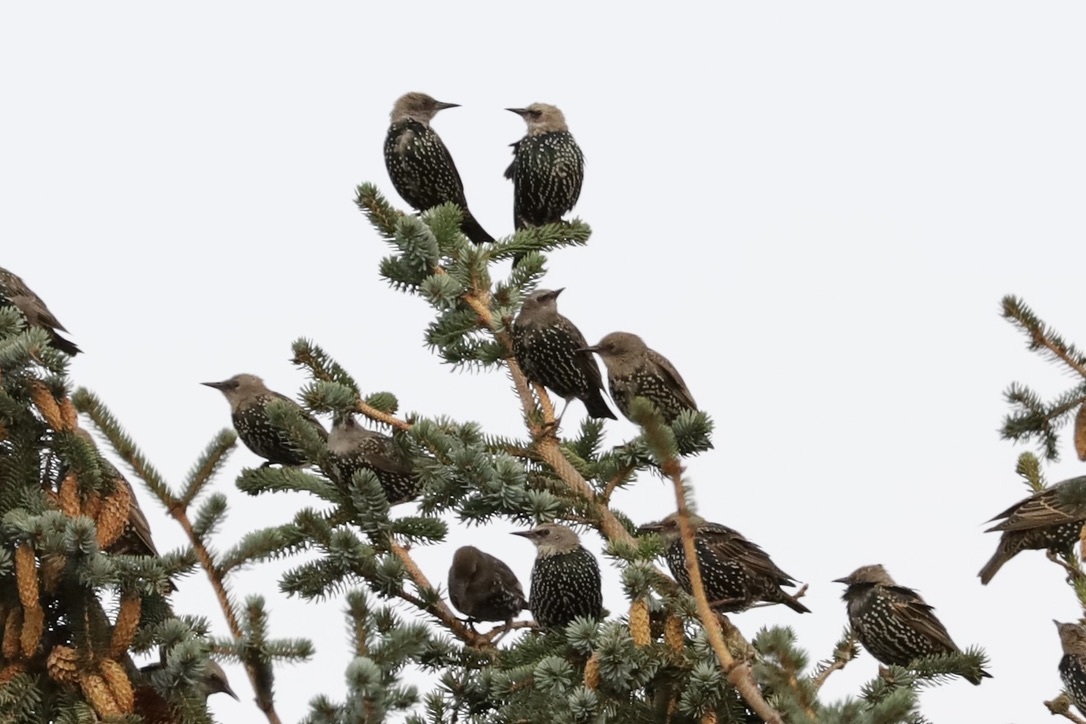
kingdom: Animalia
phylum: Chordata
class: Aves
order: Passeriformes
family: Sturnidae
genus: Sturnus
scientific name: Sturnus vulgaris
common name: Common starling
